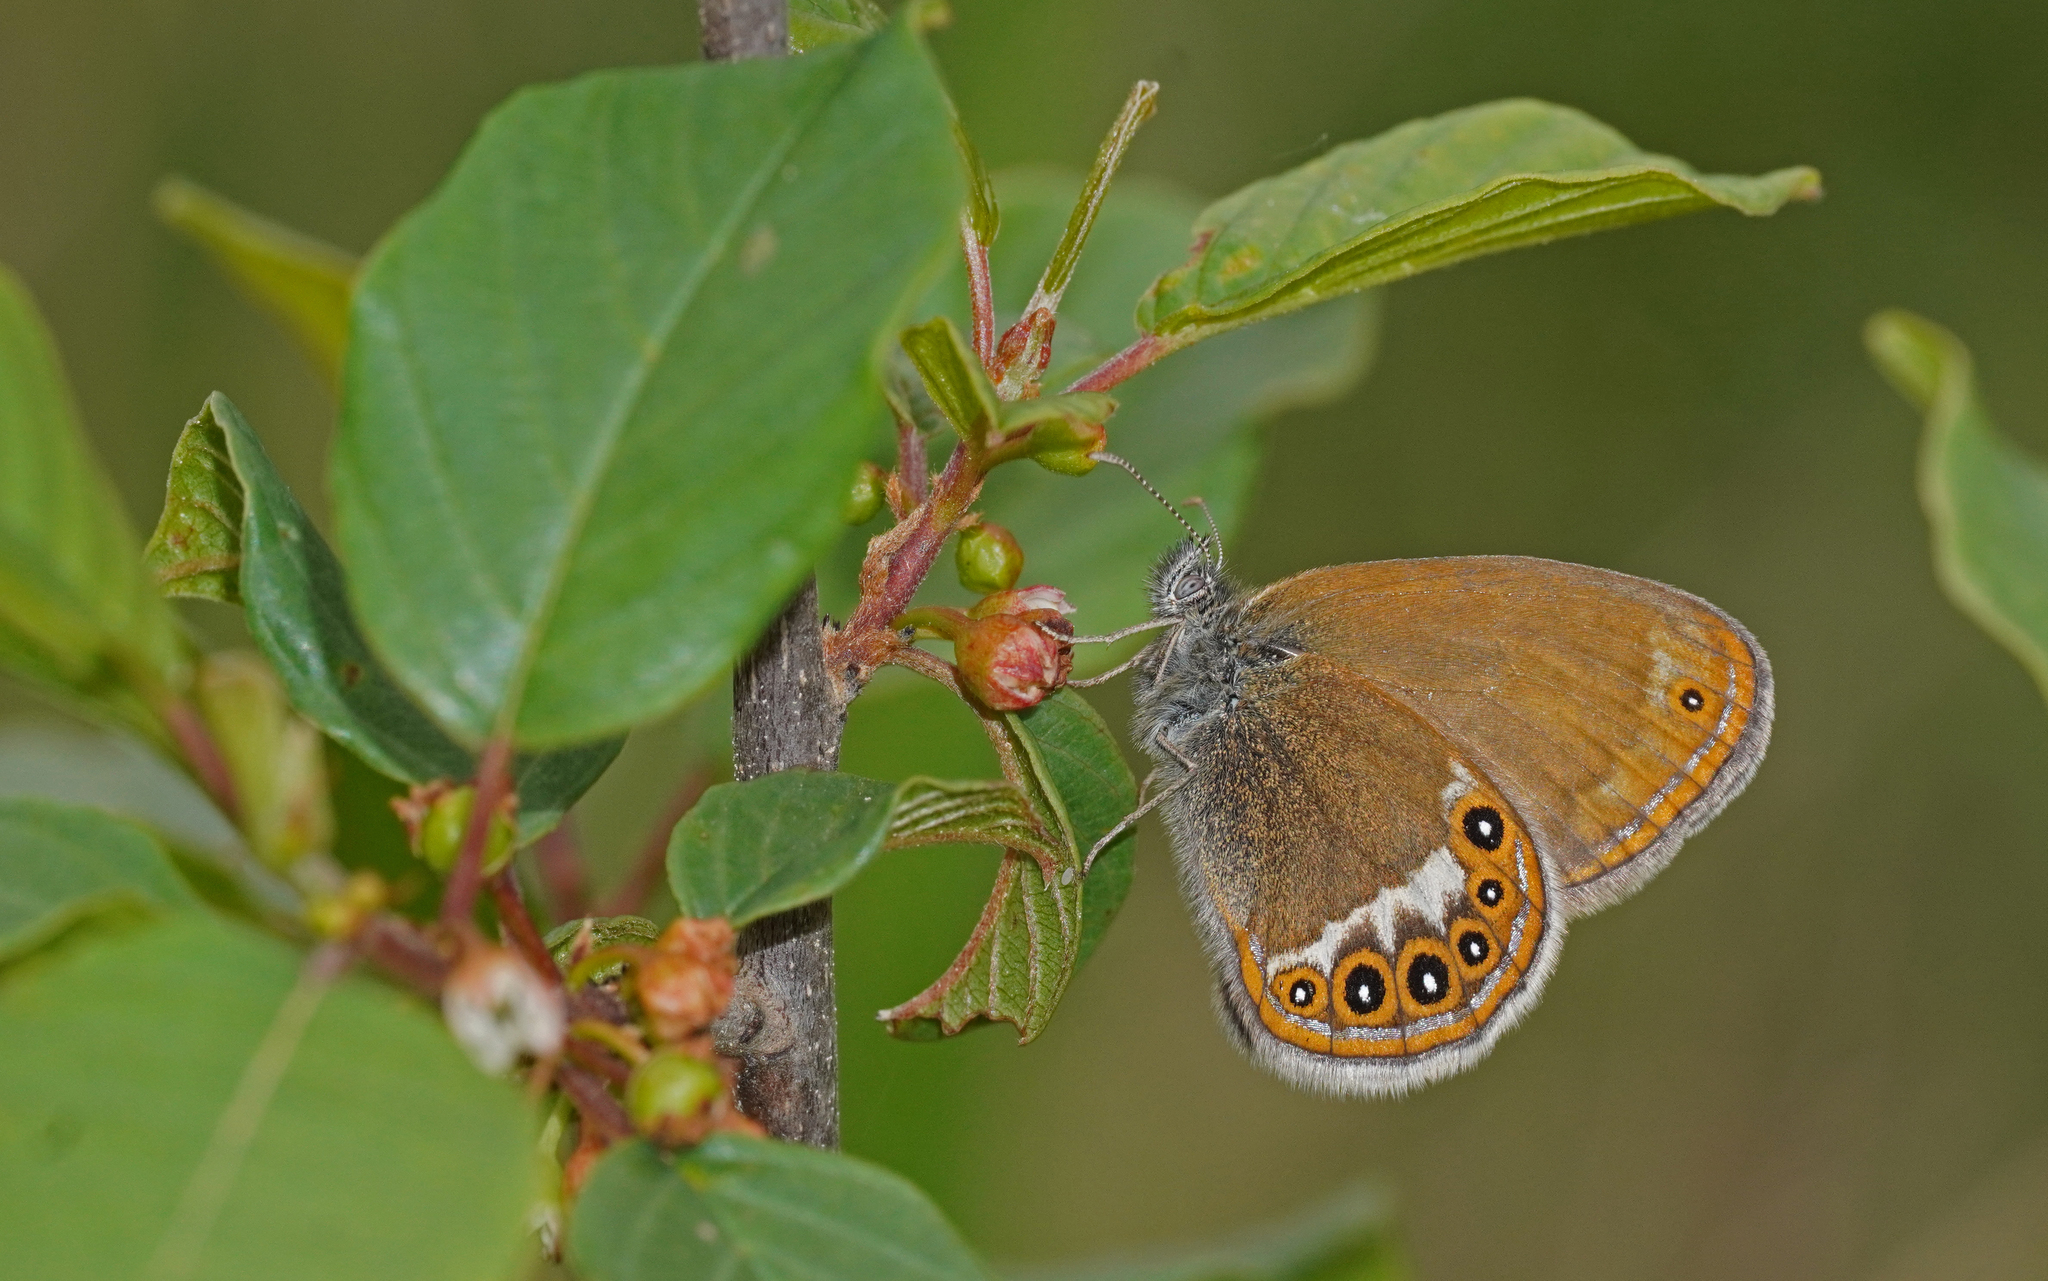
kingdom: Animalia
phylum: Arthropoda
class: Insecta
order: Lepidoptera
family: Nymphalidae
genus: Coenonympha
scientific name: Coenonympha hero
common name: Scarce heath
